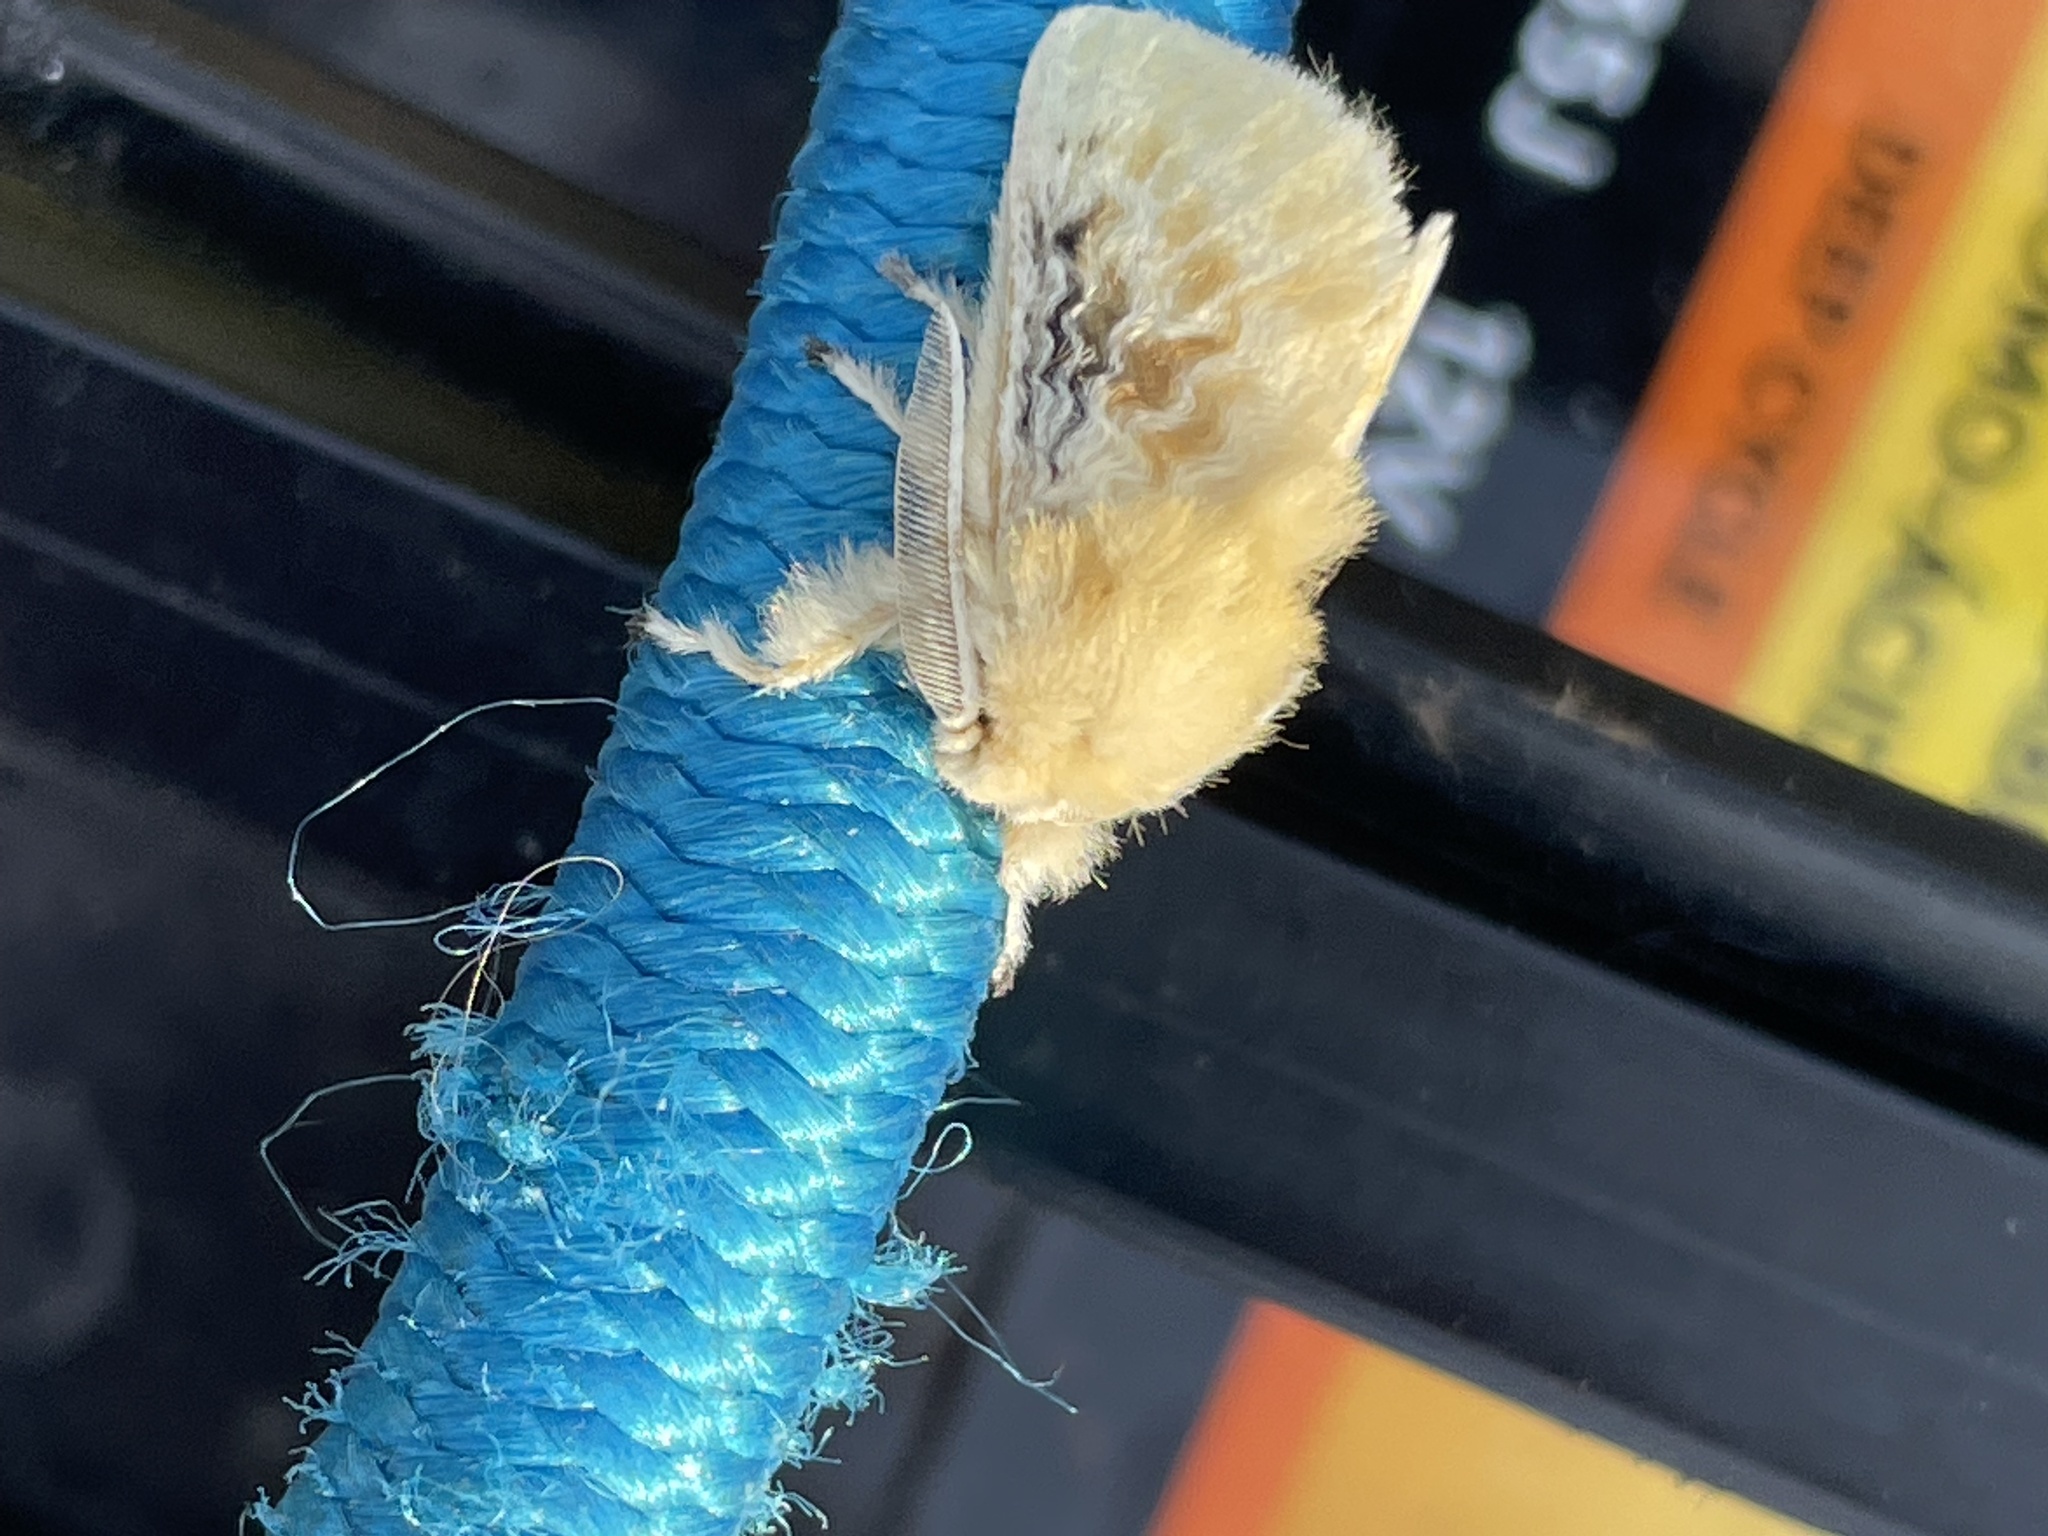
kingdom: Animalia
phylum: Arthropoda
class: Insecta
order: Lepidoptera
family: Megalopygidae
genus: Megalopyge
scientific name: Megalopyge crispata
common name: Black-waved flannel moth
